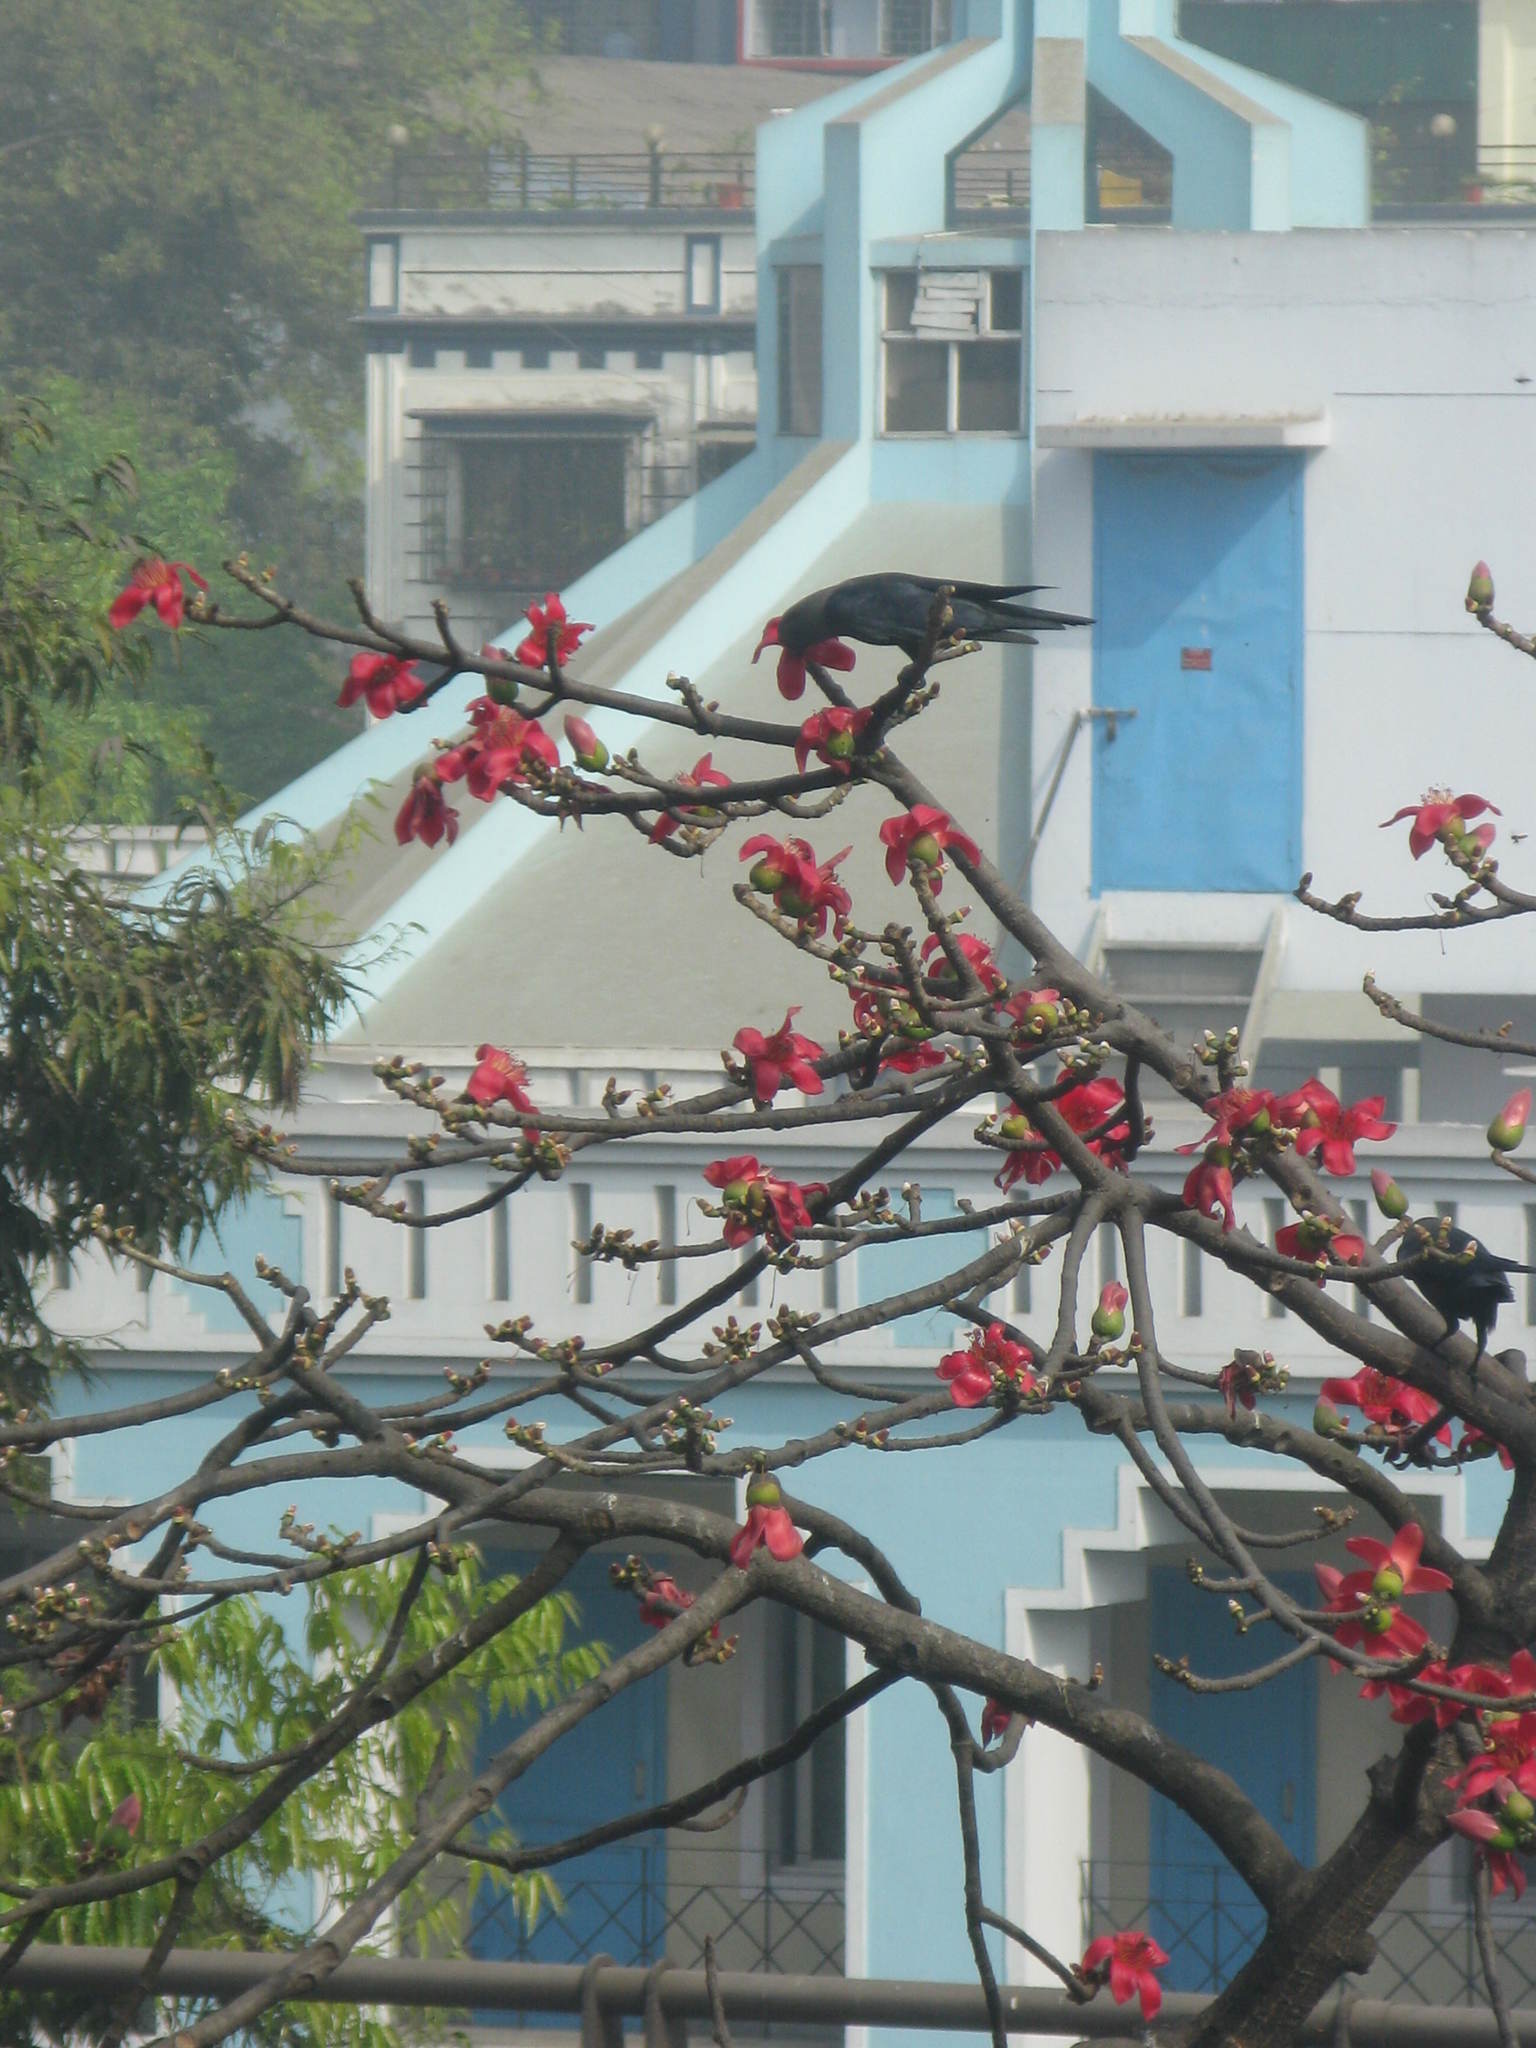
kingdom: Plantae
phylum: Tracheophyta
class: Magnoliopsida
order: Malvales
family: Malvaceae
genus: Bombax
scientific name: Bombax ceiba
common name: Northern-cottonwood
